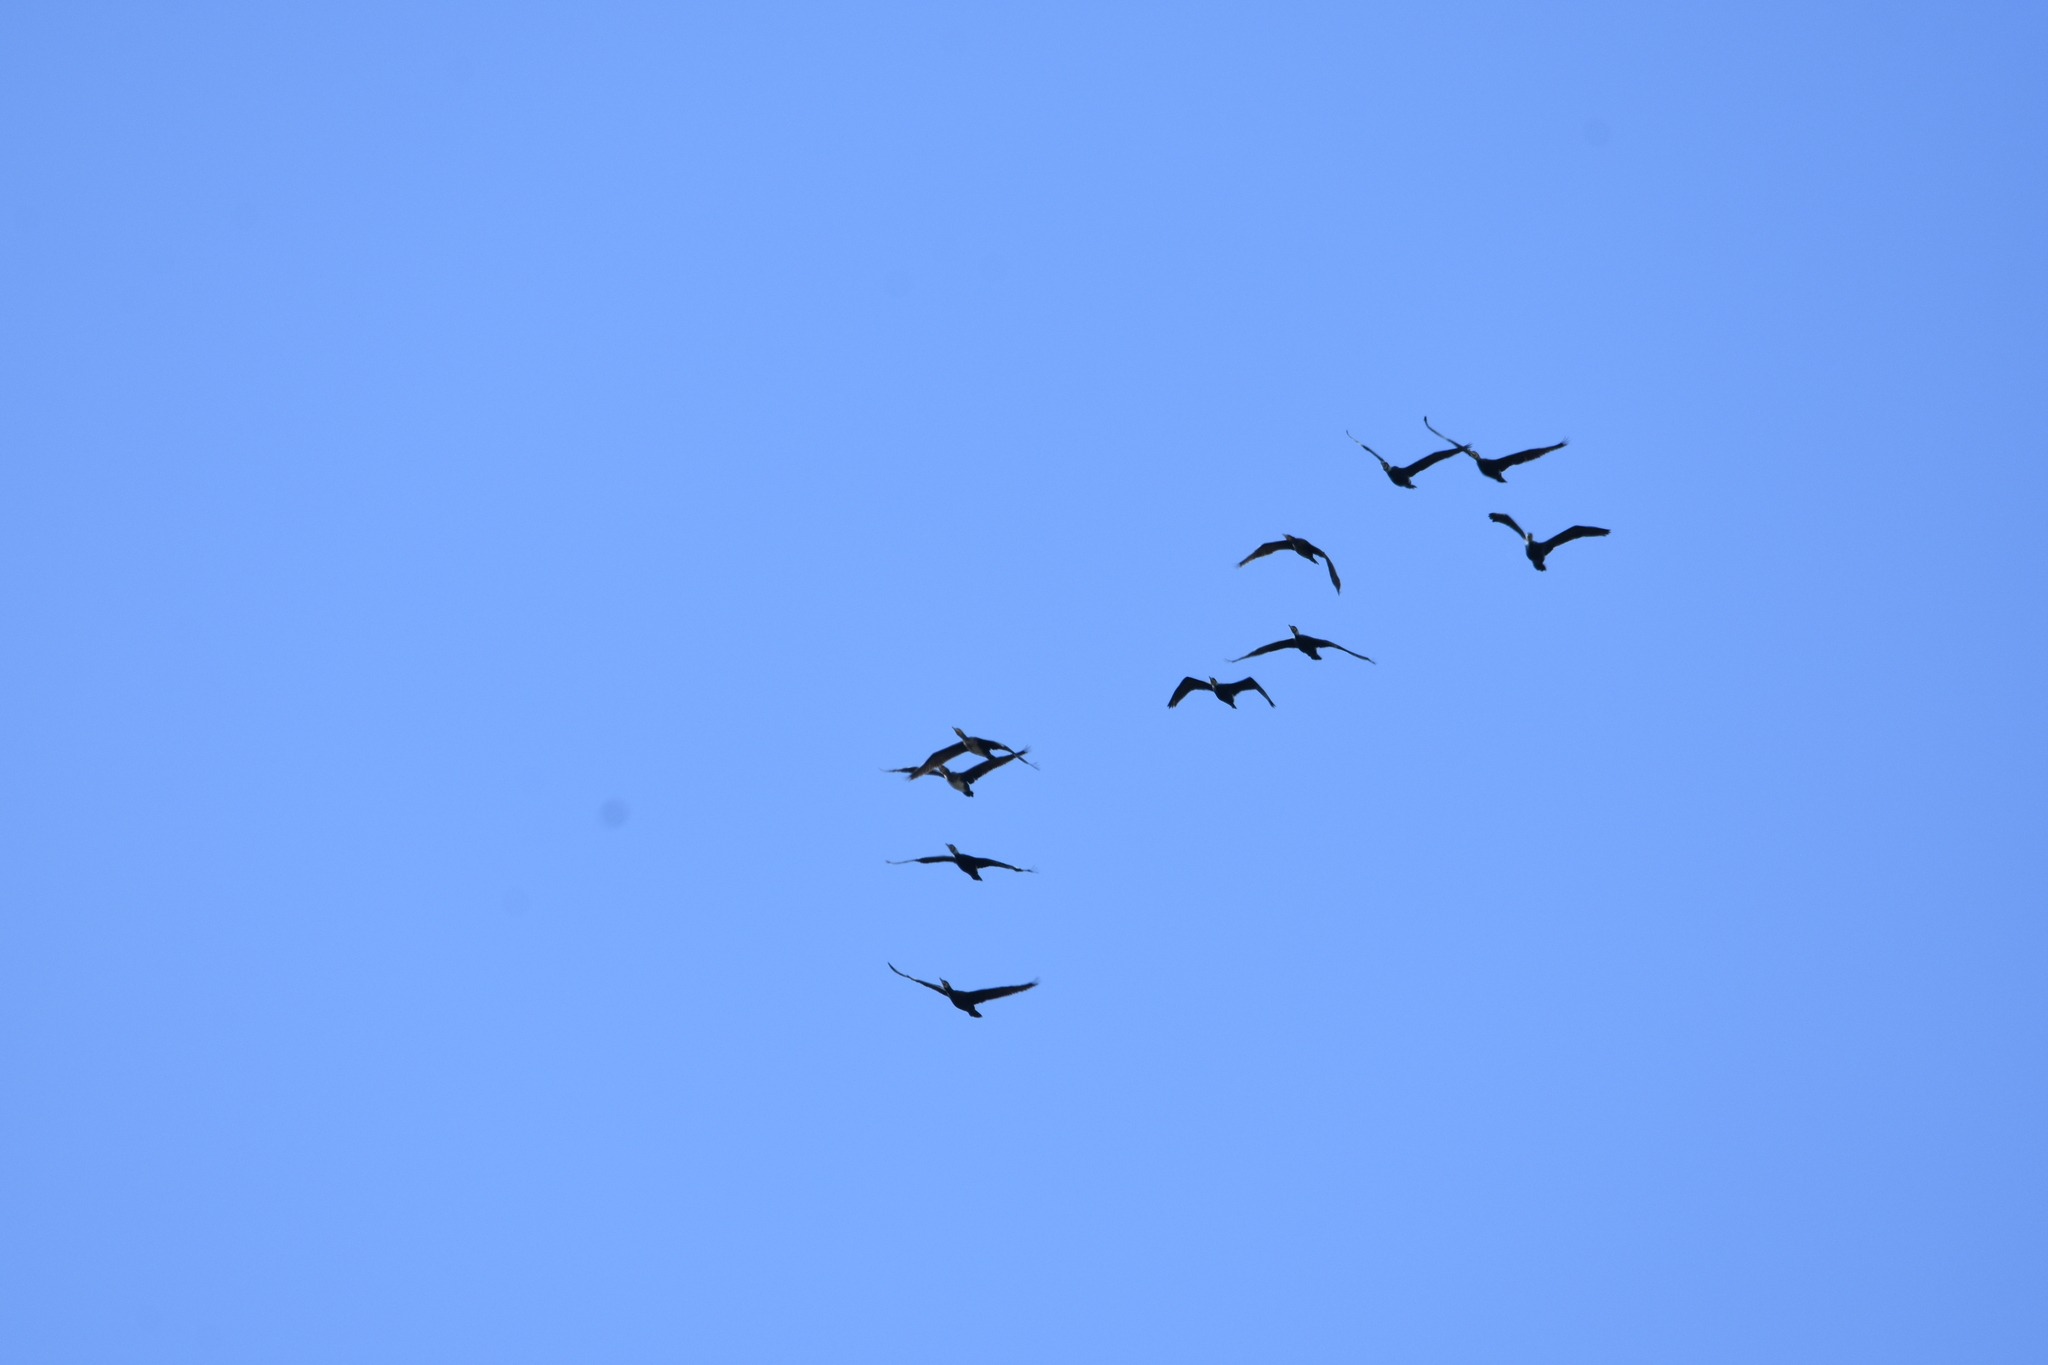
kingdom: Animalia
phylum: Chordata
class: Aves
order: Suliformes
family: Phalacrocoracidae
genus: Phalacrocorax
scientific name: Phalacrocorax carbo
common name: Great cormorant
